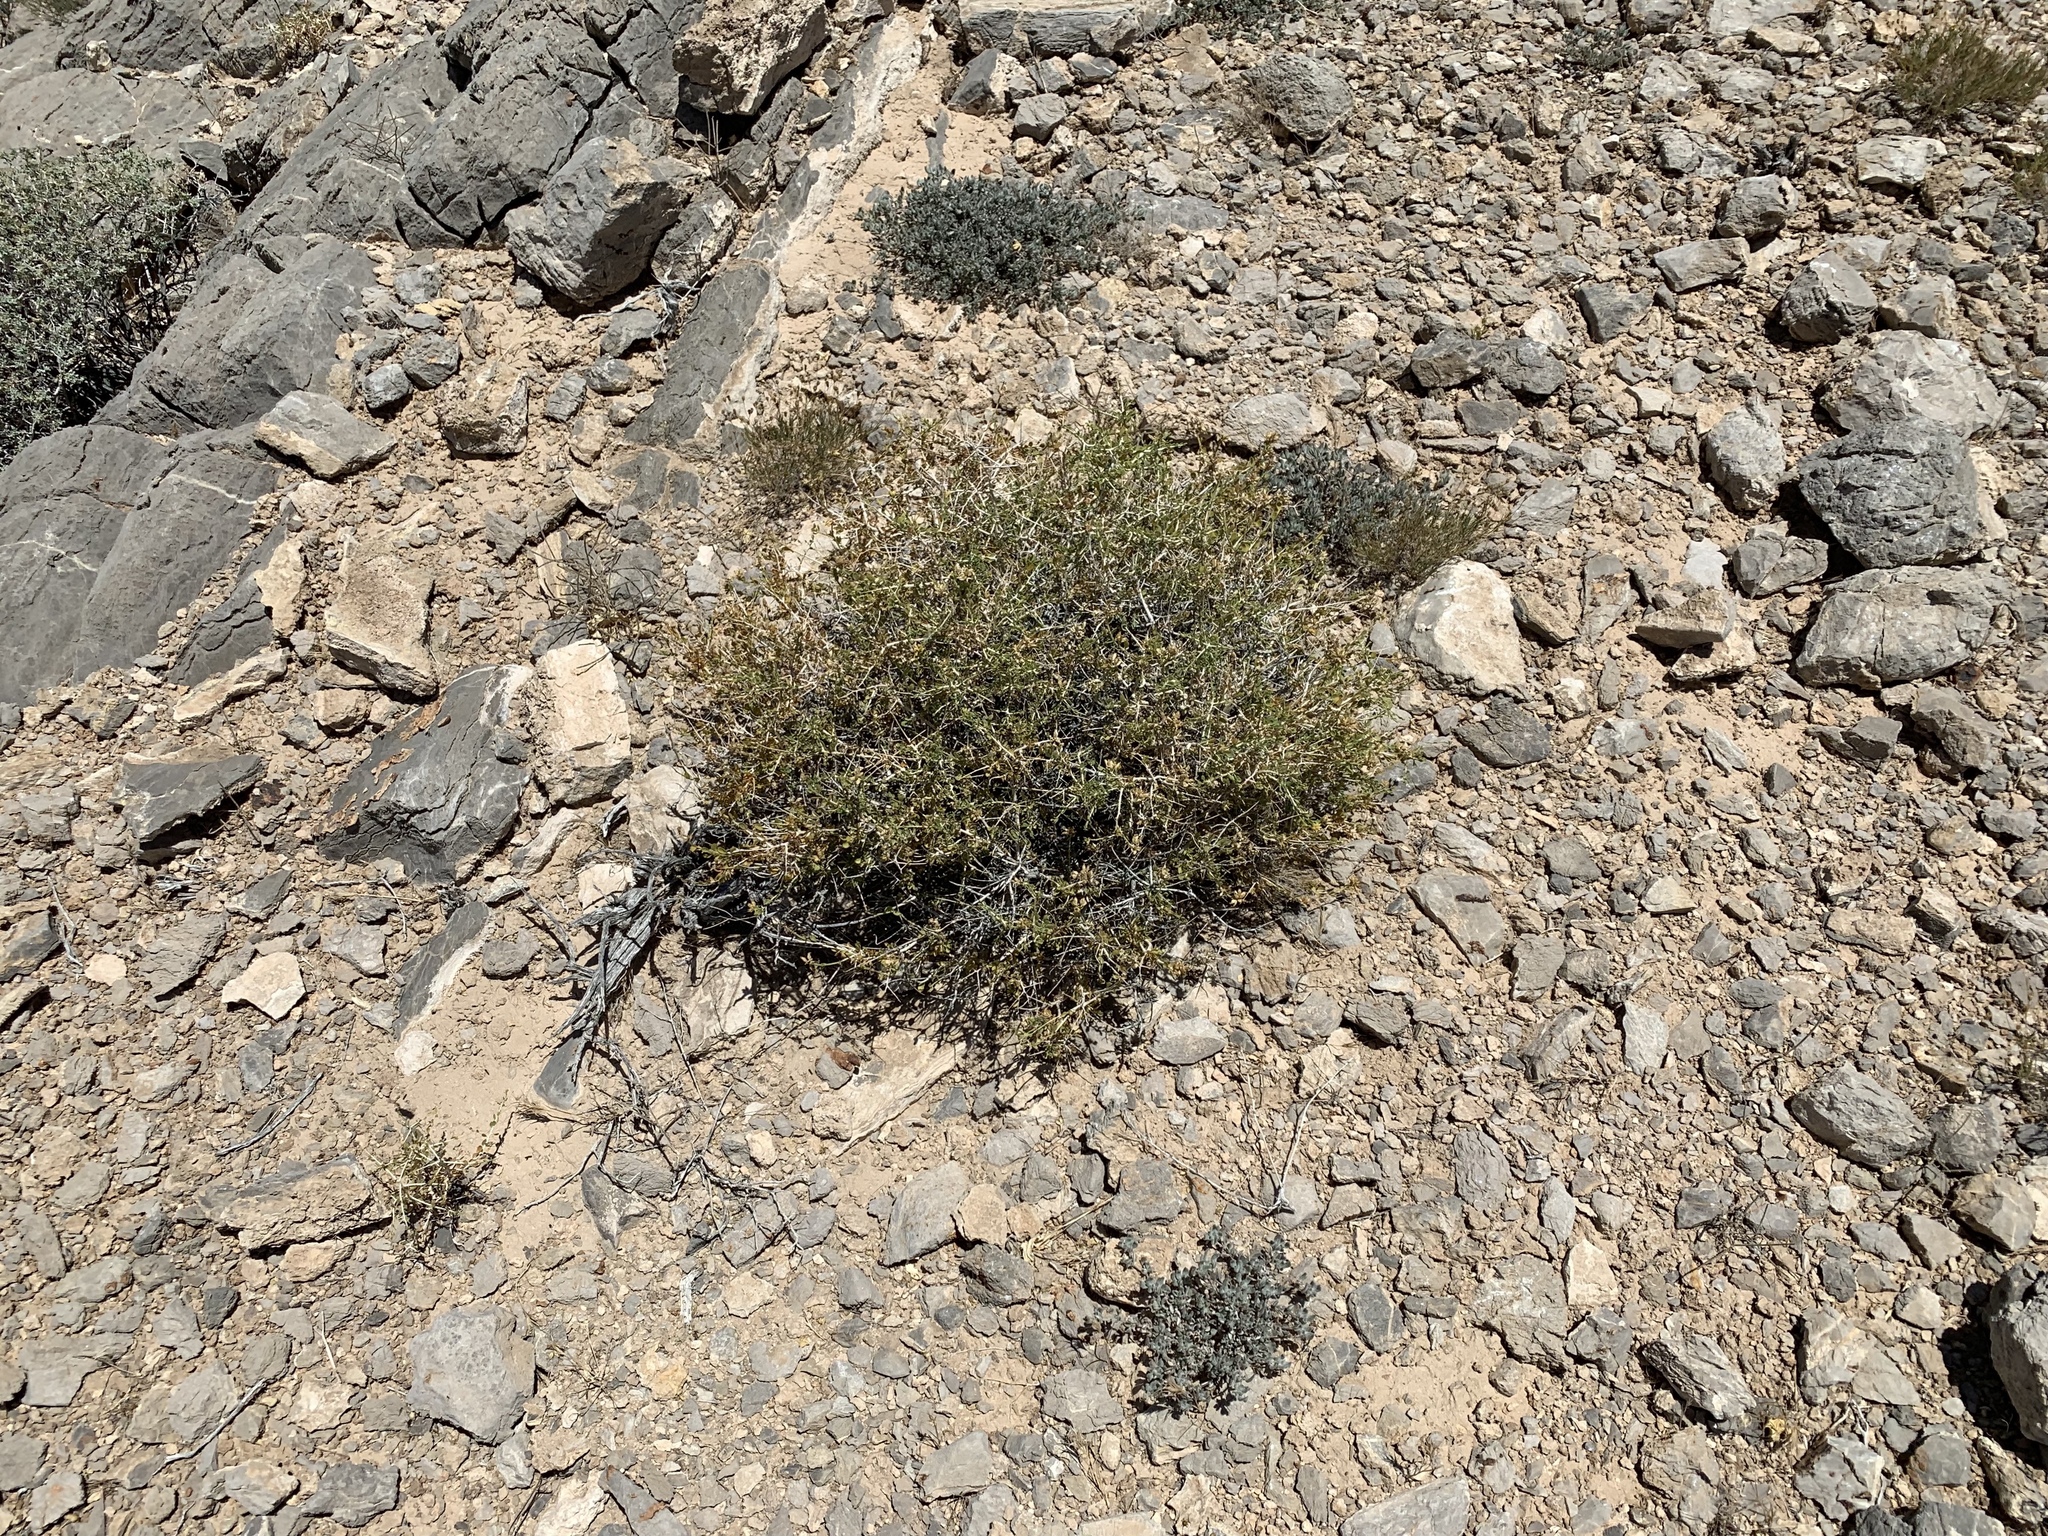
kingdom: Plantae
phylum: Tracheophyta
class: Magnoliopsida
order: Asterales
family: Asteraceae
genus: Amphipappus
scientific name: Amphipappus fremontii
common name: Fremont's chaffbush
